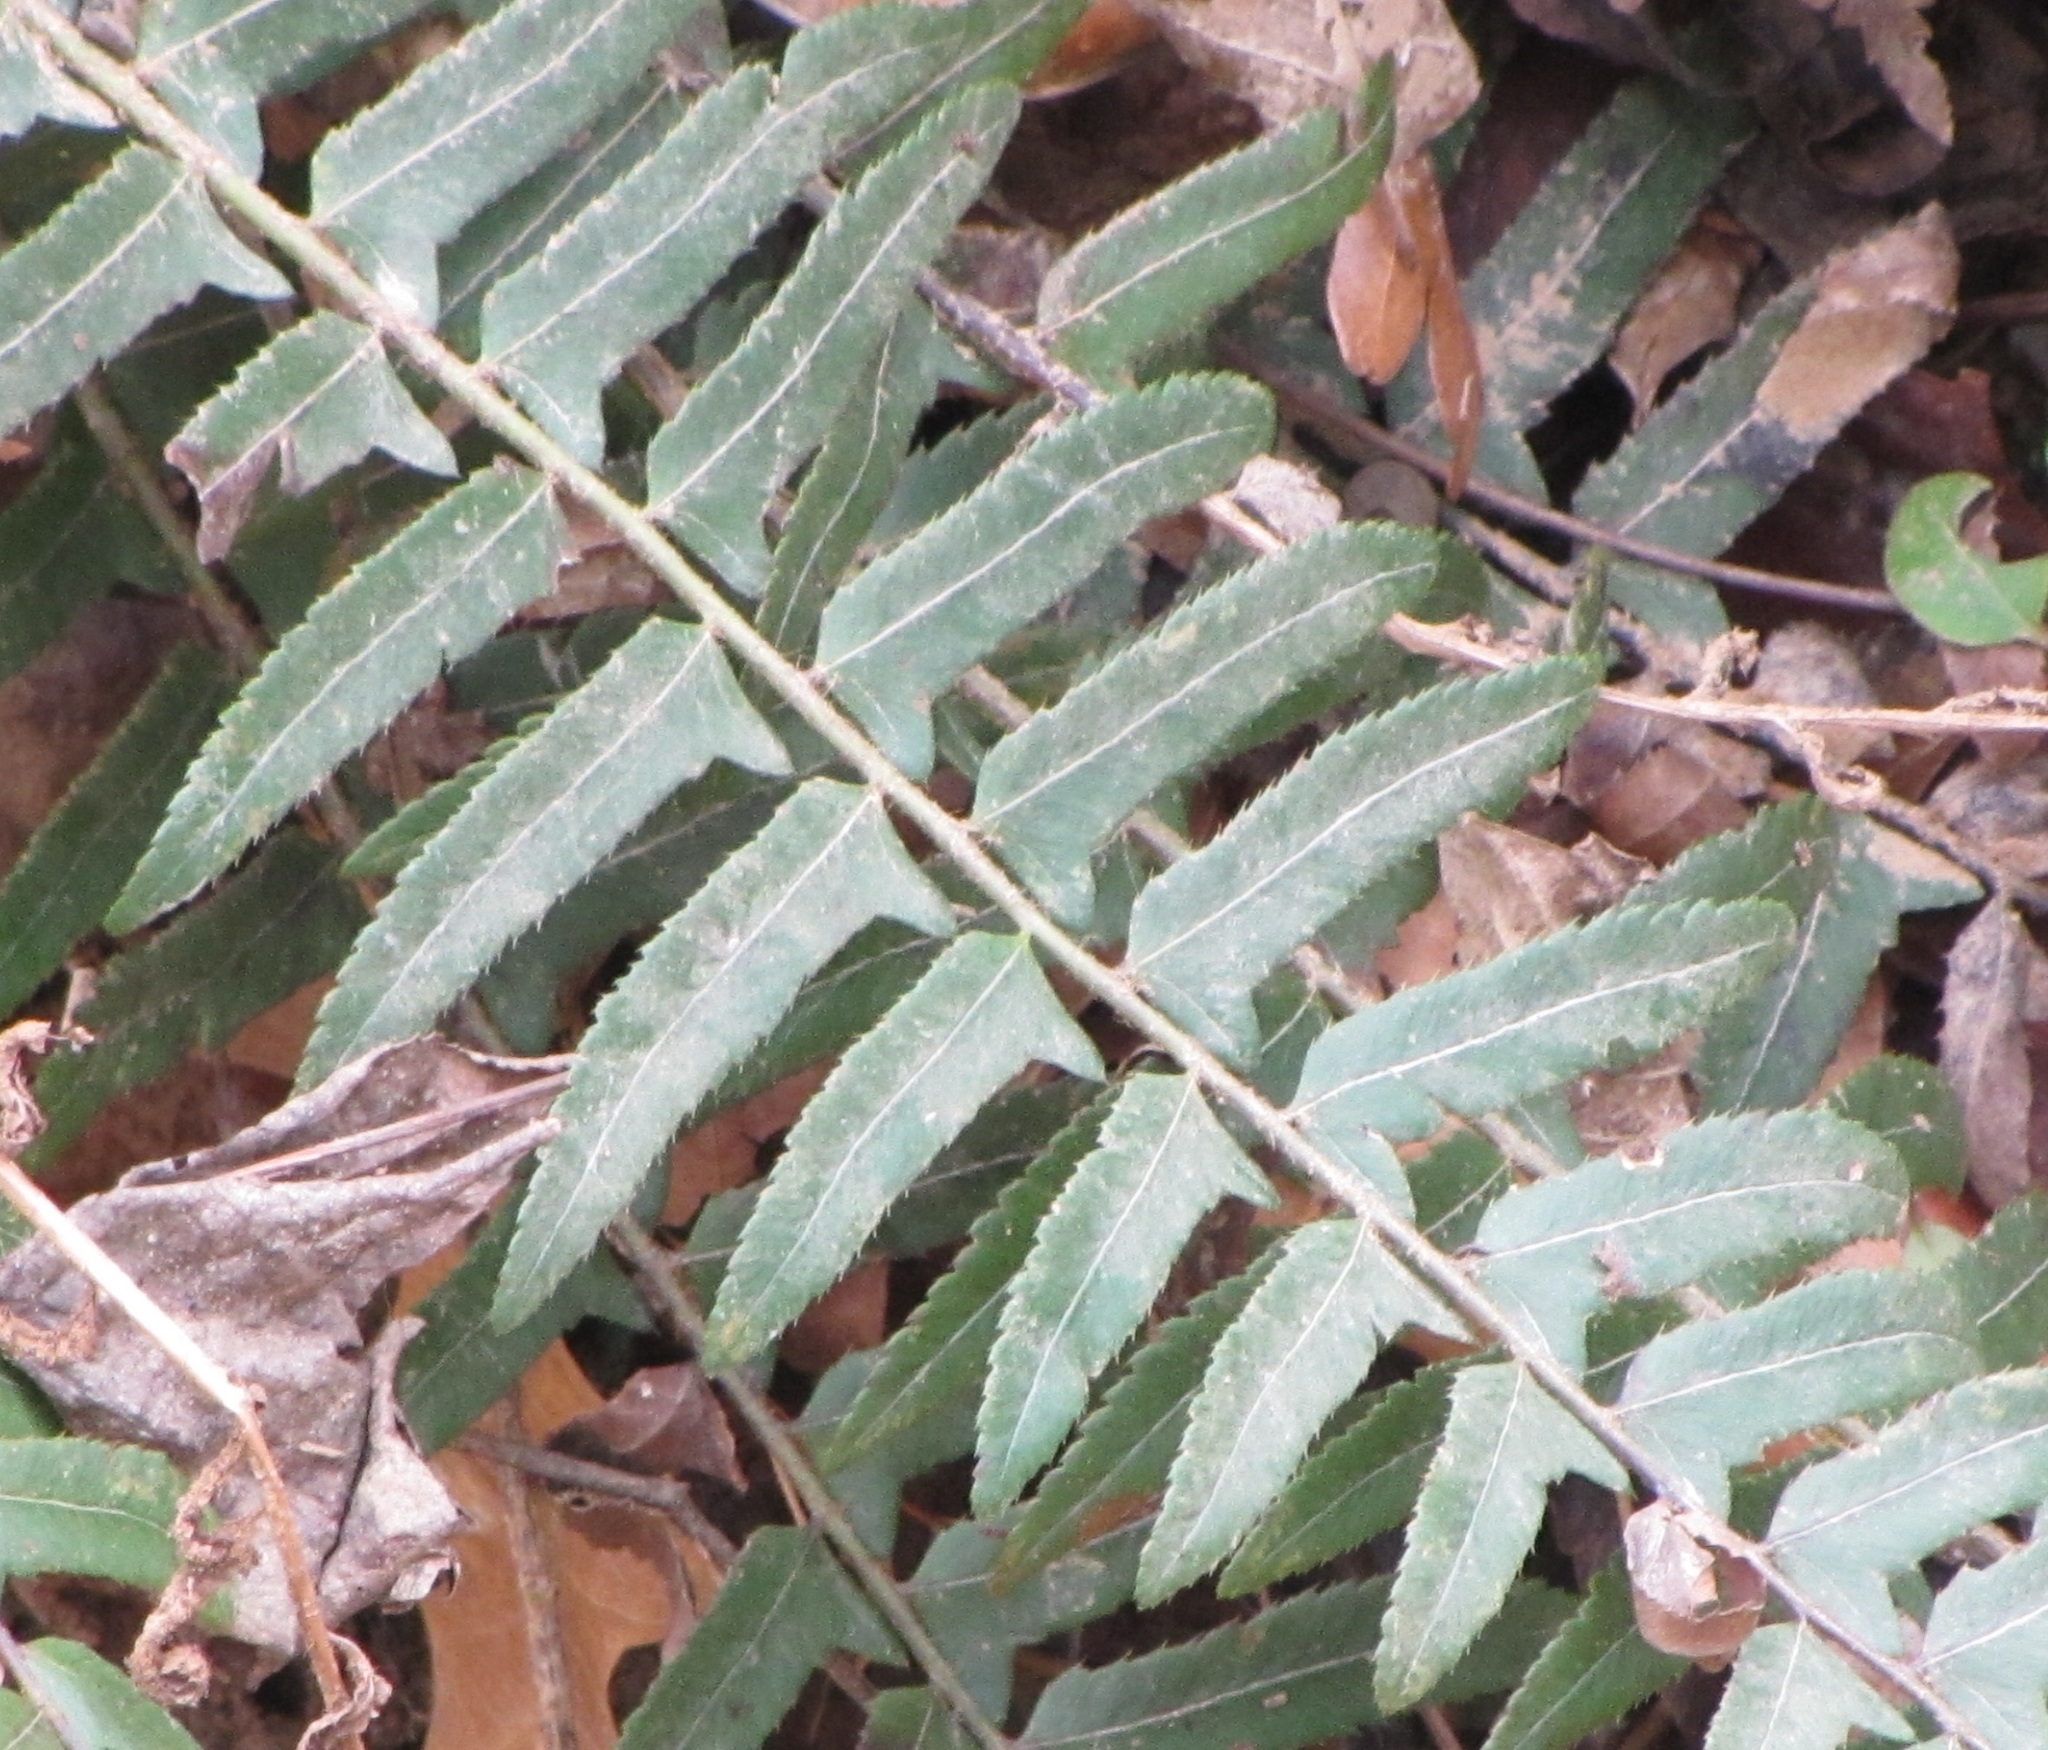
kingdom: Plantae
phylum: Tracheophyta
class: Polypodiopsida
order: Polypodiales
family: Dryopteridaceae
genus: Polystichum
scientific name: Polystichum acrostichoides
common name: Christmas fern
